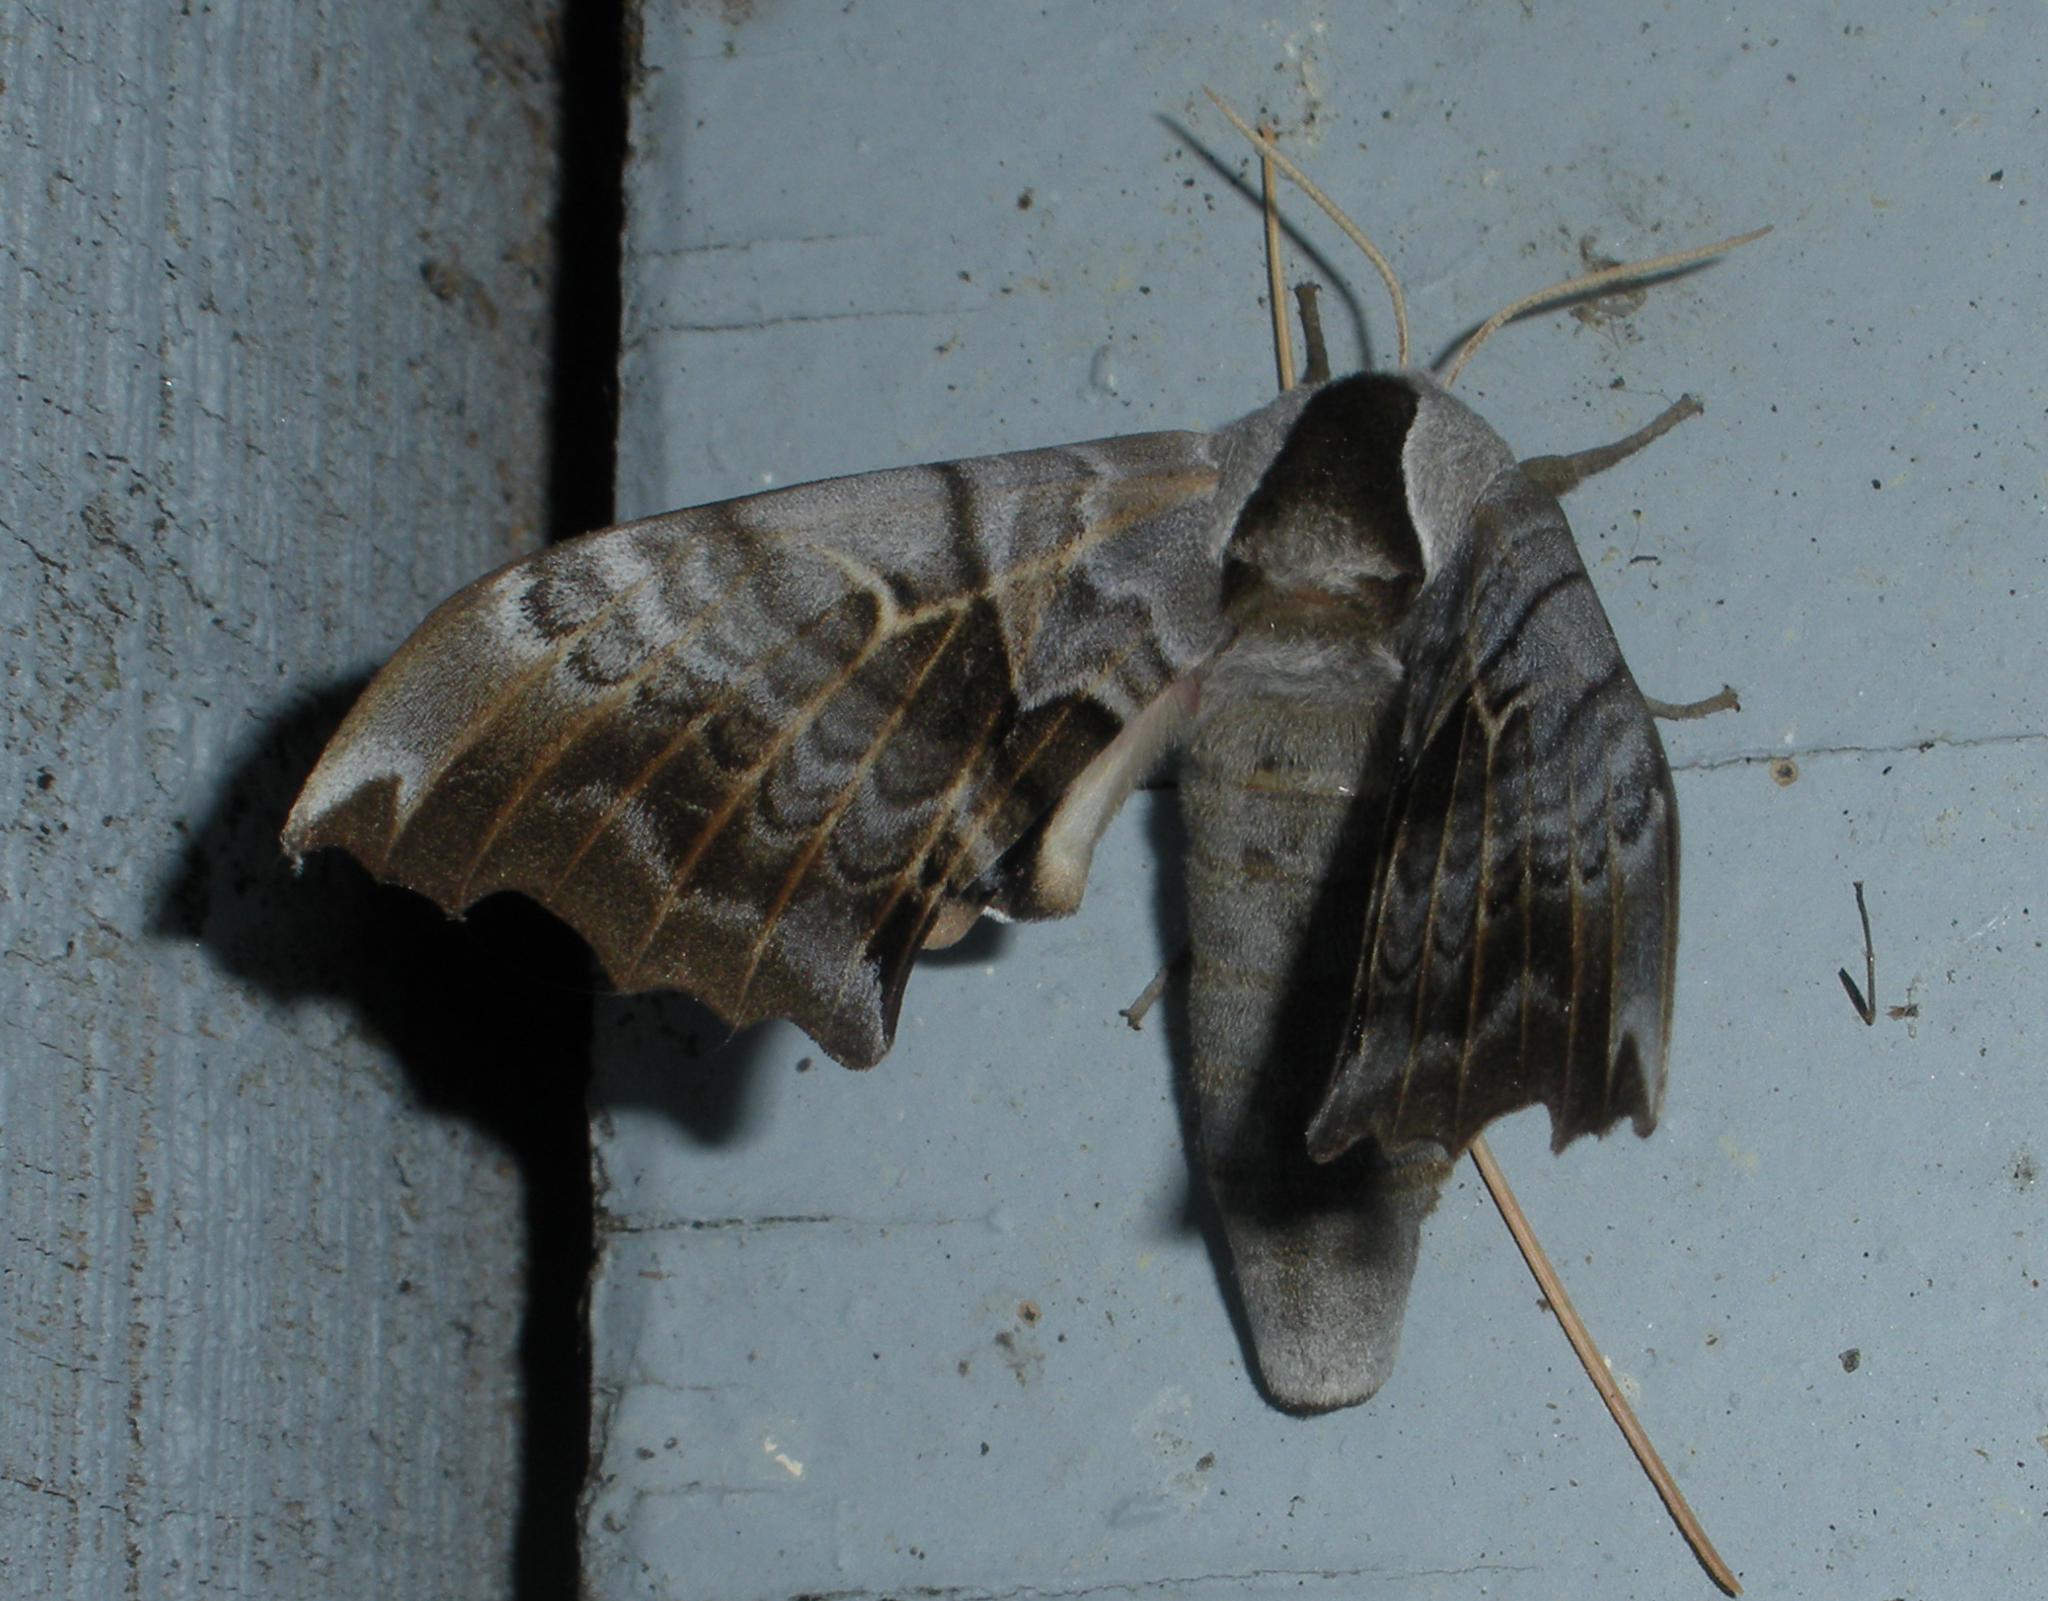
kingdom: Animalia
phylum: Arthropoda
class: Insecta
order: Lepidoptera
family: Sphingidae
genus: Smerinthus
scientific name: Smerinthus cerisyi
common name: Cerisy's sphinx moth
